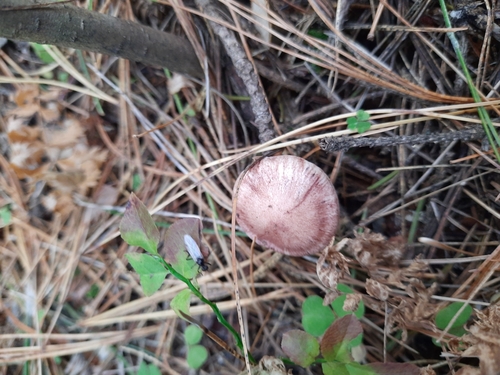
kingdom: Fungi
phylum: Basidiomycota
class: Agaricomycetes
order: Agaricales
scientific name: Agaricales
